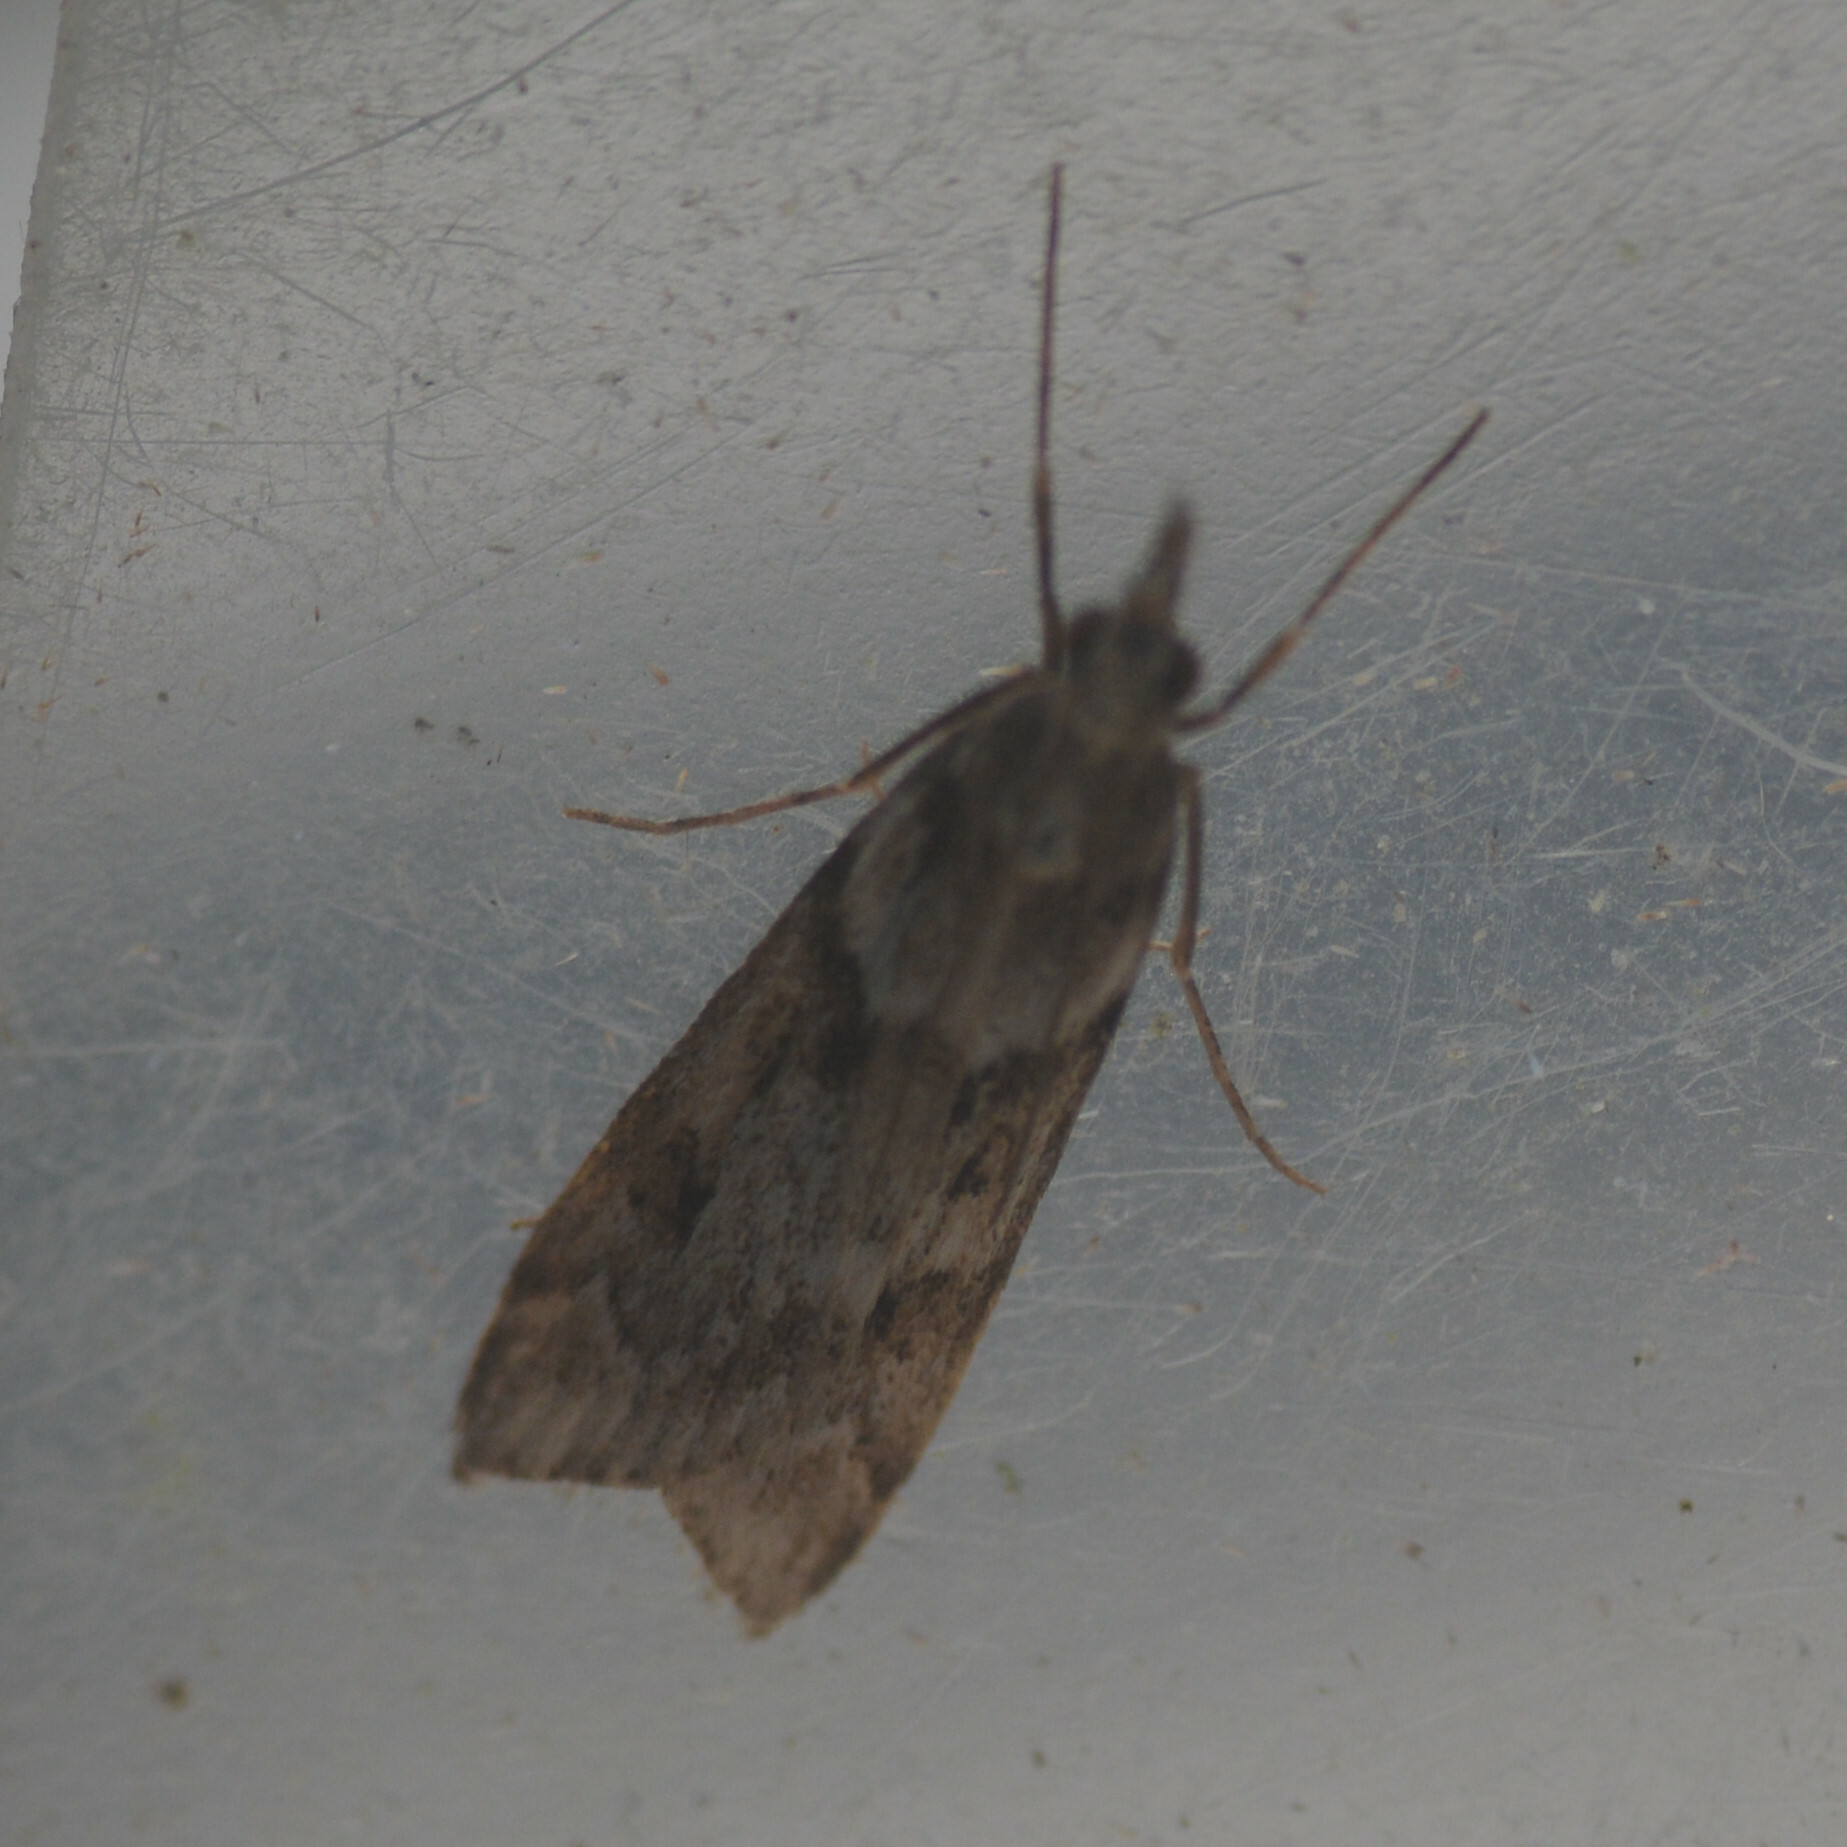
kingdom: Animalia
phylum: Arthropoda
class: Insecta
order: Lepidoptera
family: Crambidae
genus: Eudonia
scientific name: Eudonia angustea
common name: Narrow-winged grey
